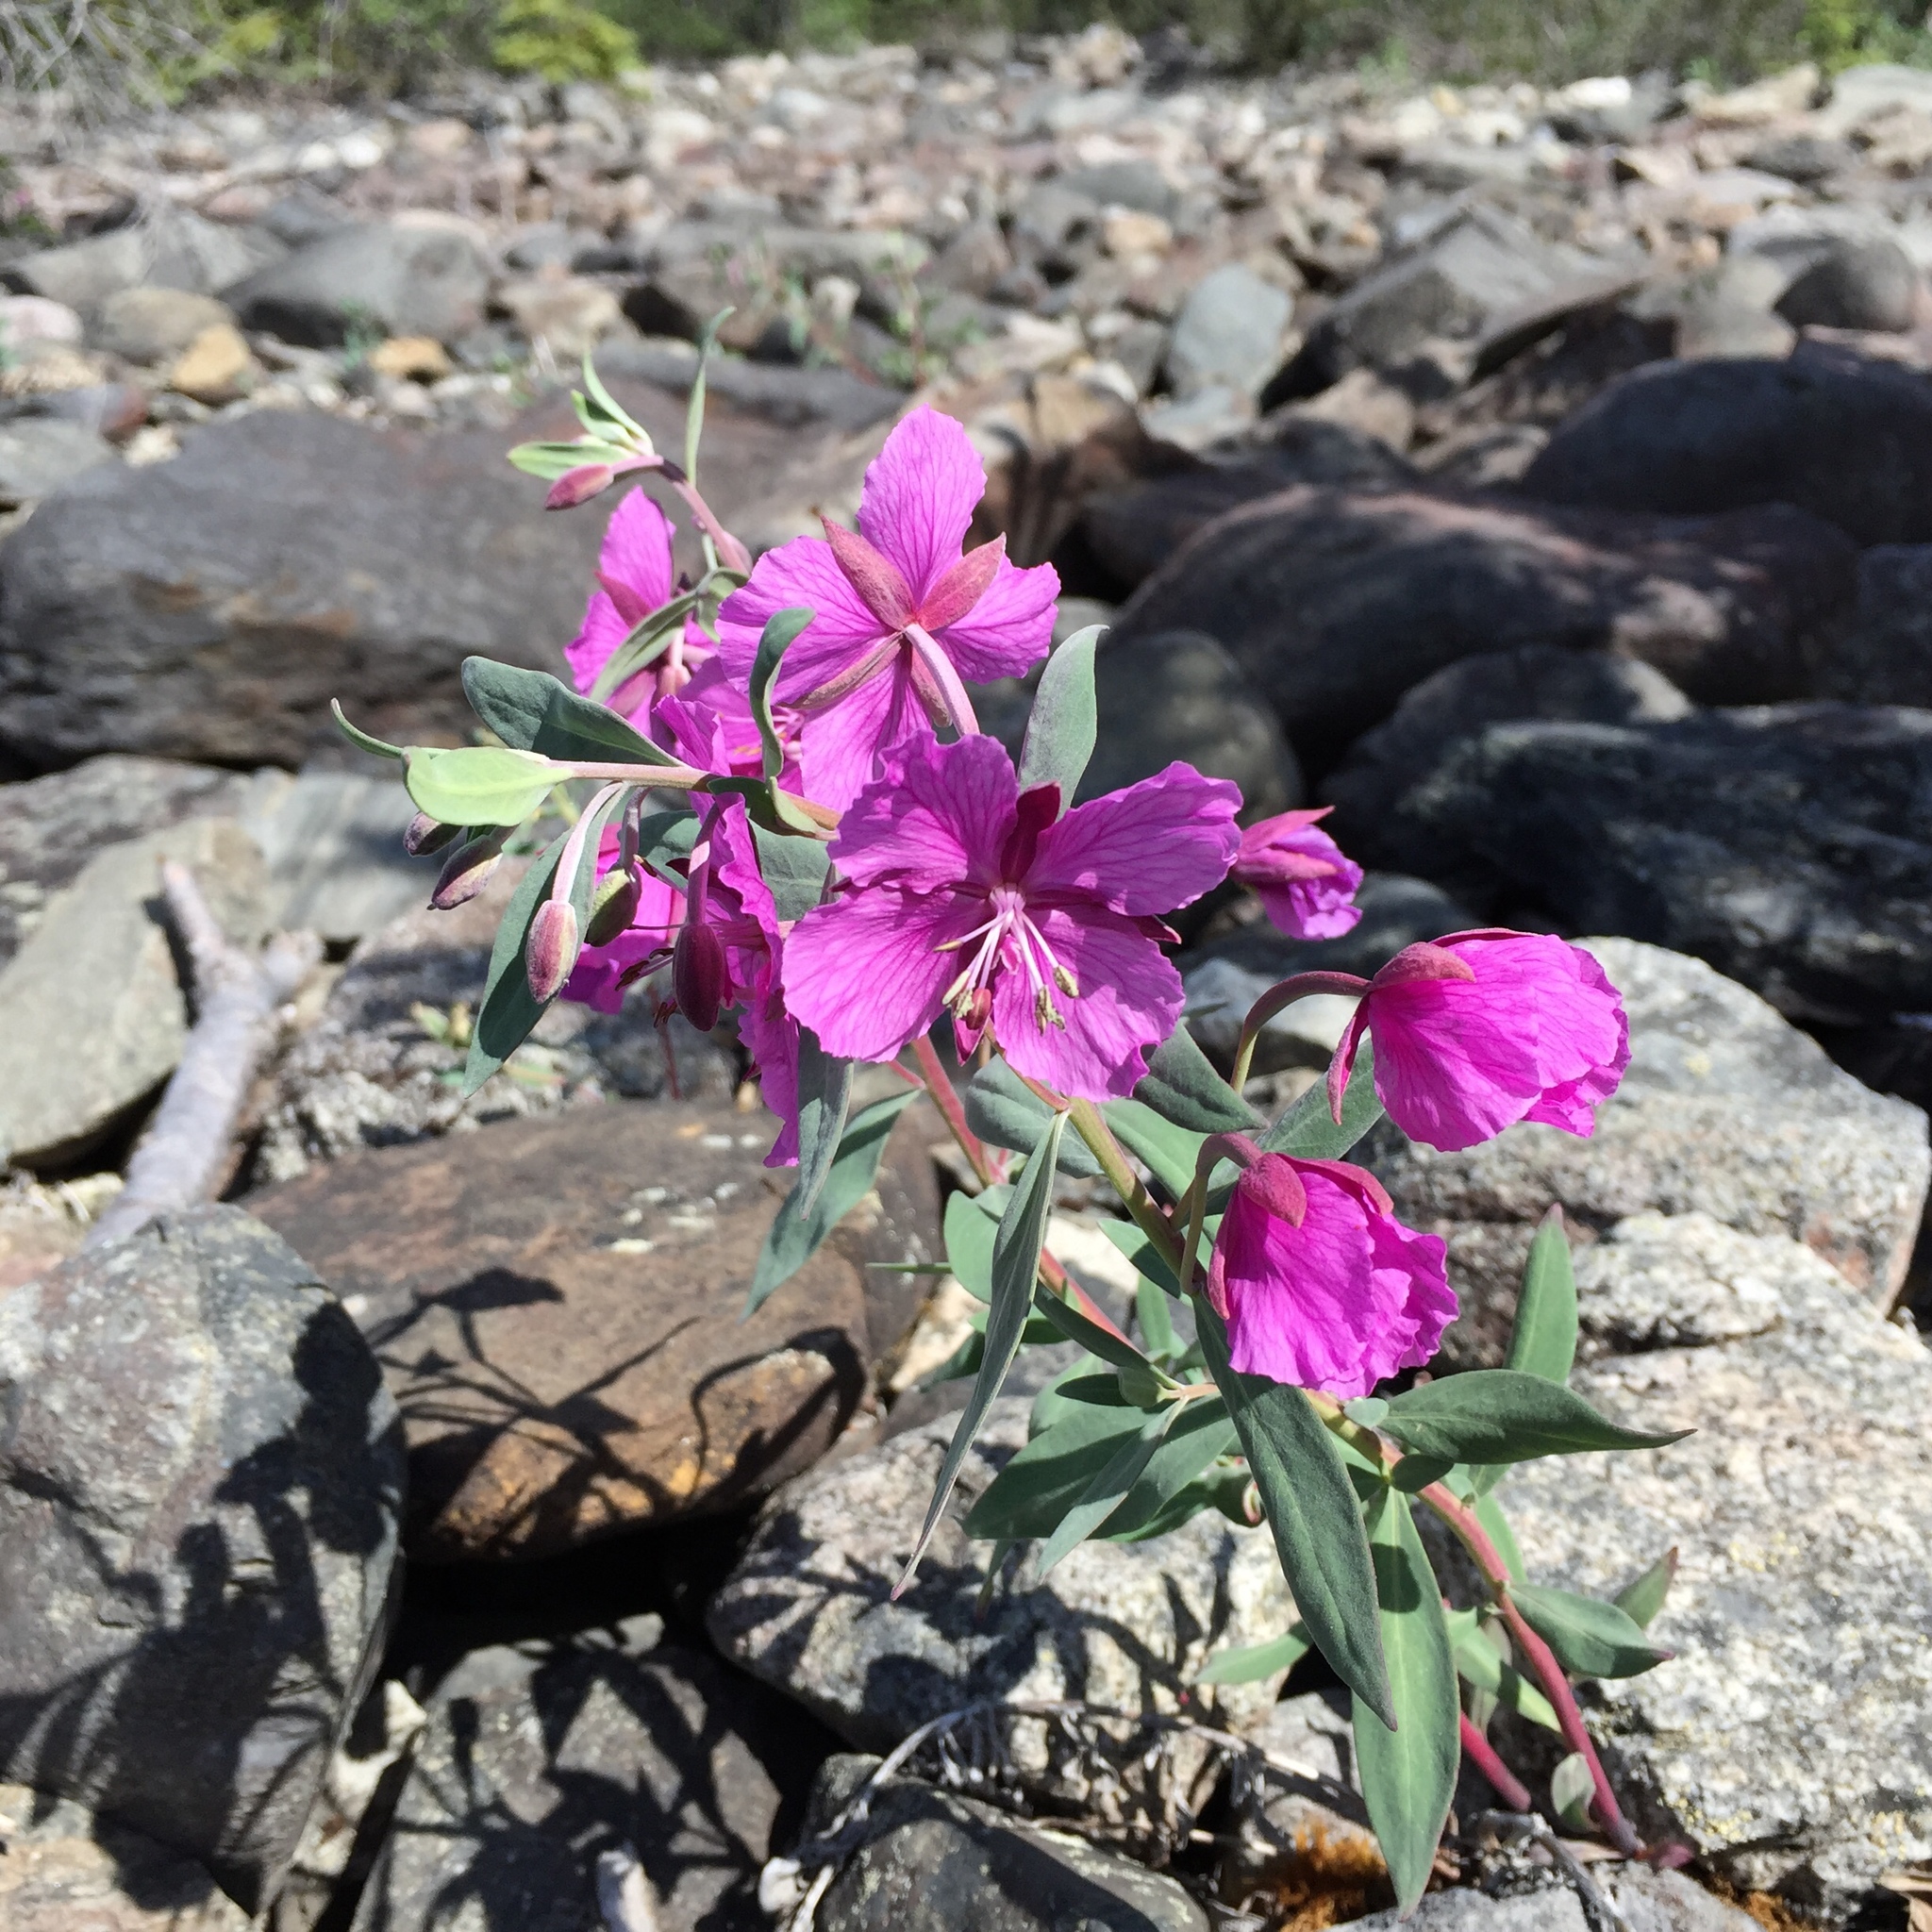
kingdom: Plantae
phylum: Tracheophyta
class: Magnoliopsida
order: Myrtales
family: Onagraceae
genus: Chamaenerion
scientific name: Chamaenerion latifolium
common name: Dwarf fireweed
